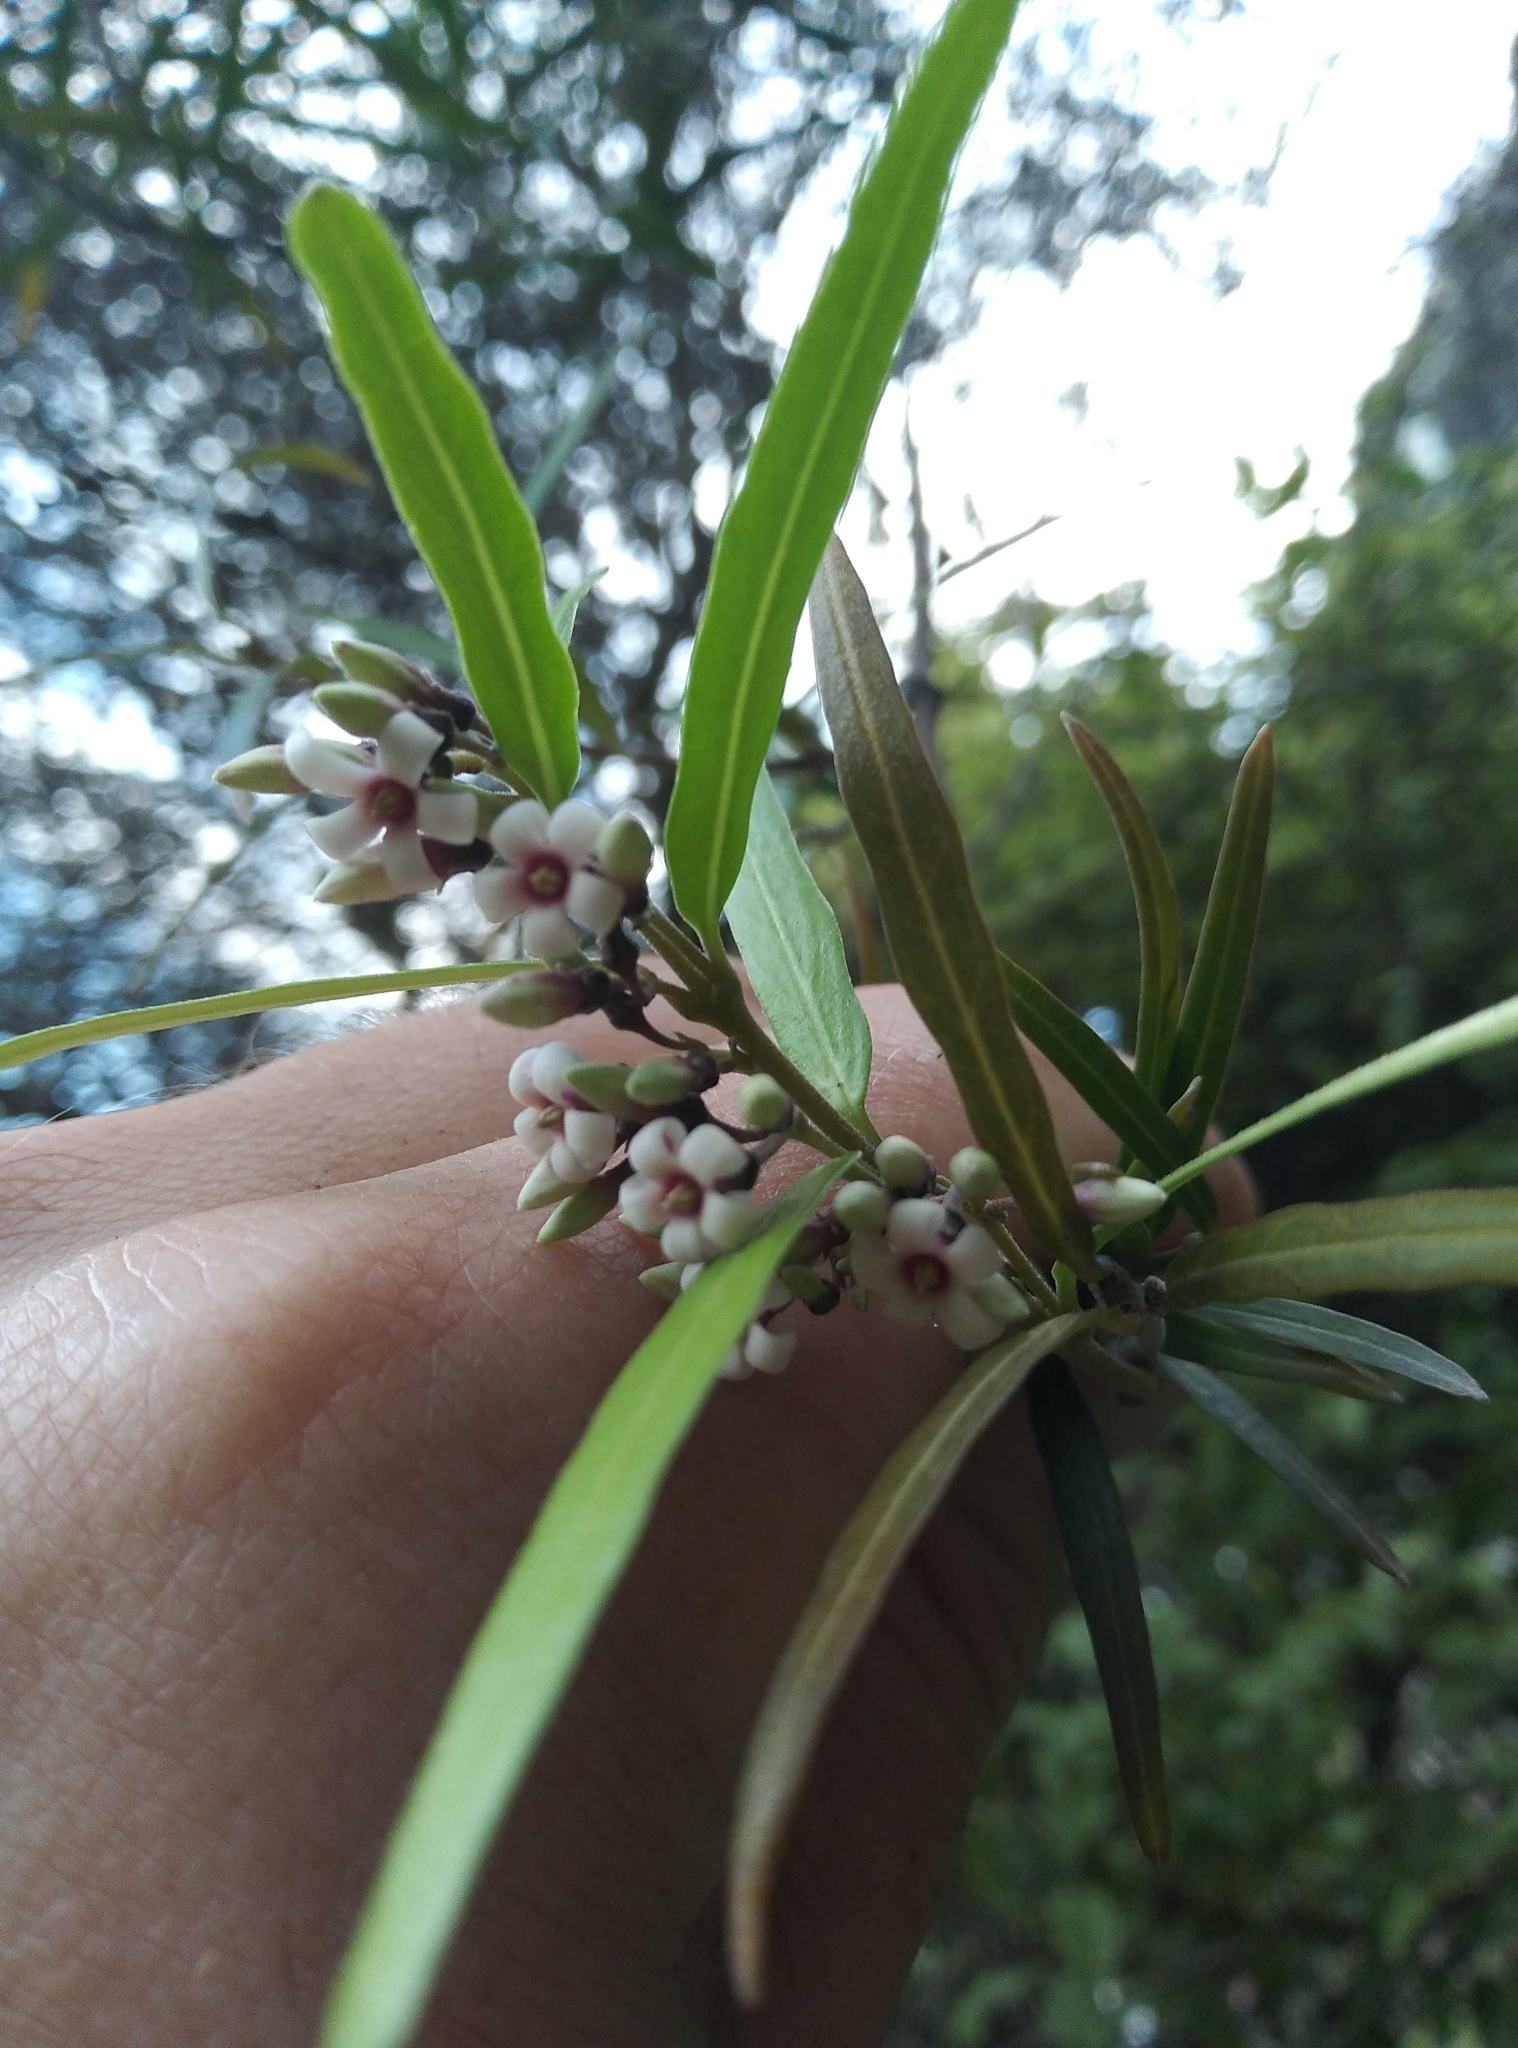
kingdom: Plantae
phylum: Tracheophyta
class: Magnoliopsida
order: Gentianales
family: Apocynaceae
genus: Parsonsia
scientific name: Parsonsia capsularis
